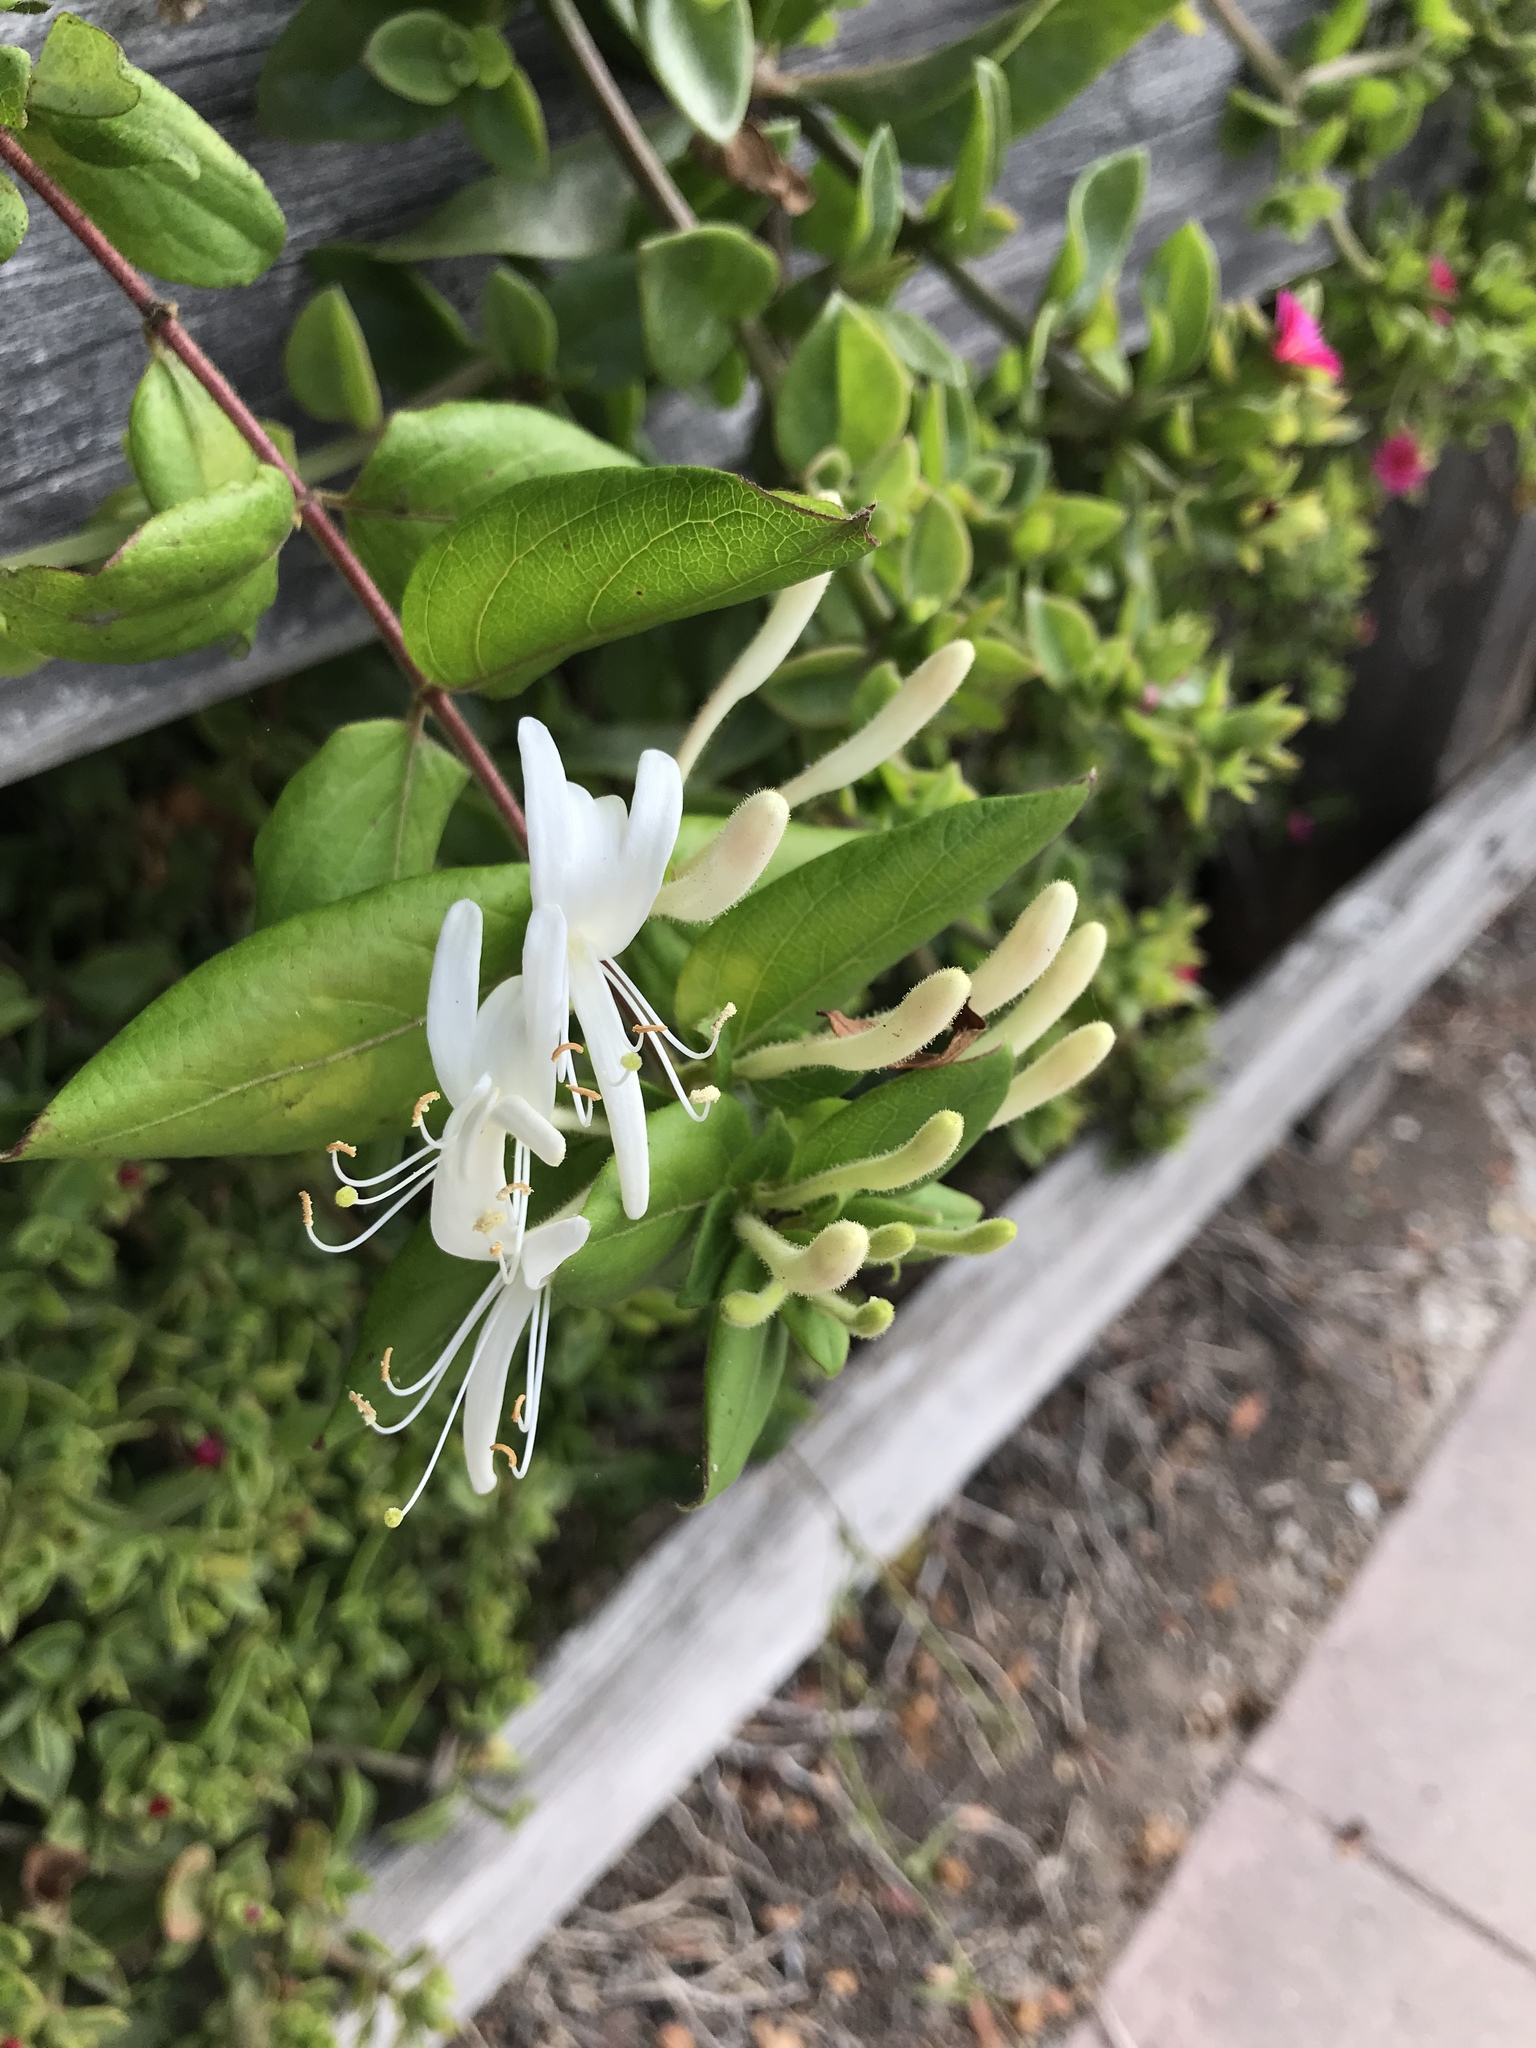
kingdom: Plantae
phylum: Tracheophyta
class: Magnoliopsida
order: Dipsacales
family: Caprifoliaceae
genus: Lonicera
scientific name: Lonicera japonica
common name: Japanese honeysuckle
